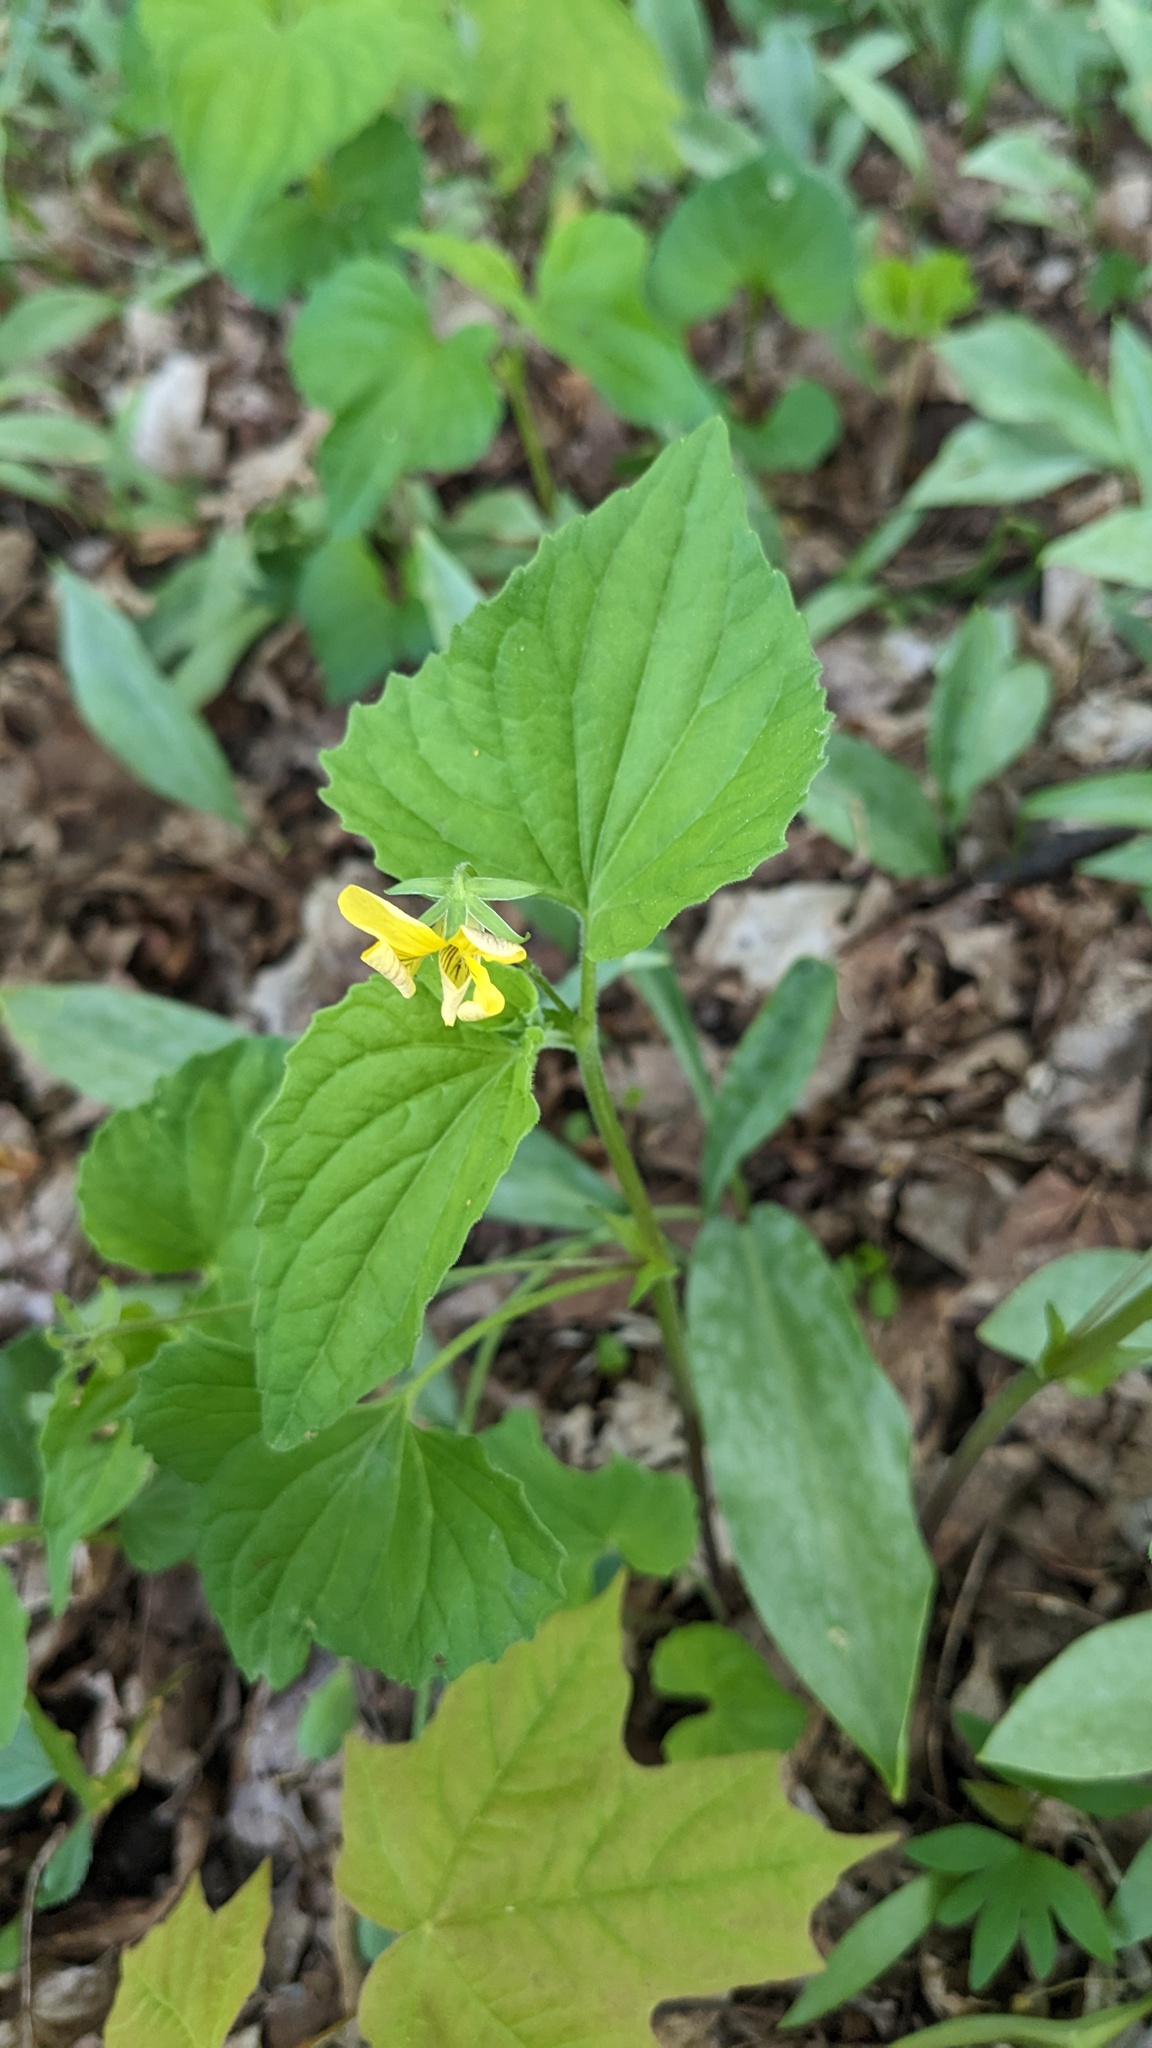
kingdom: Plantae
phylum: Tracheophyta
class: Magnoliopsida
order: Malpighiales
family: Violaceae
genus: Viola
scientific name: Viola eriocarpa
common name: Smooth yellow violet
